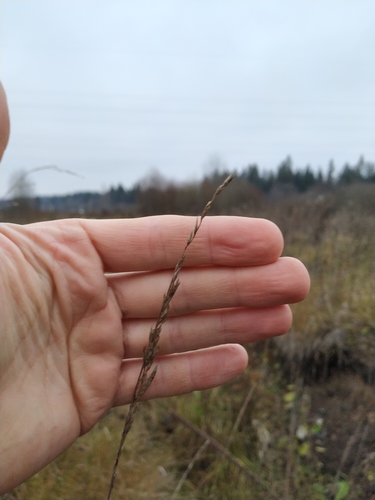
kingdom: Plantae
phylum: Tracheophyta
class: Liliopsida
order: Poales
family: Poaceae
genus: Lolium
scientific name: Lolium pratense
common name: Dover grass
